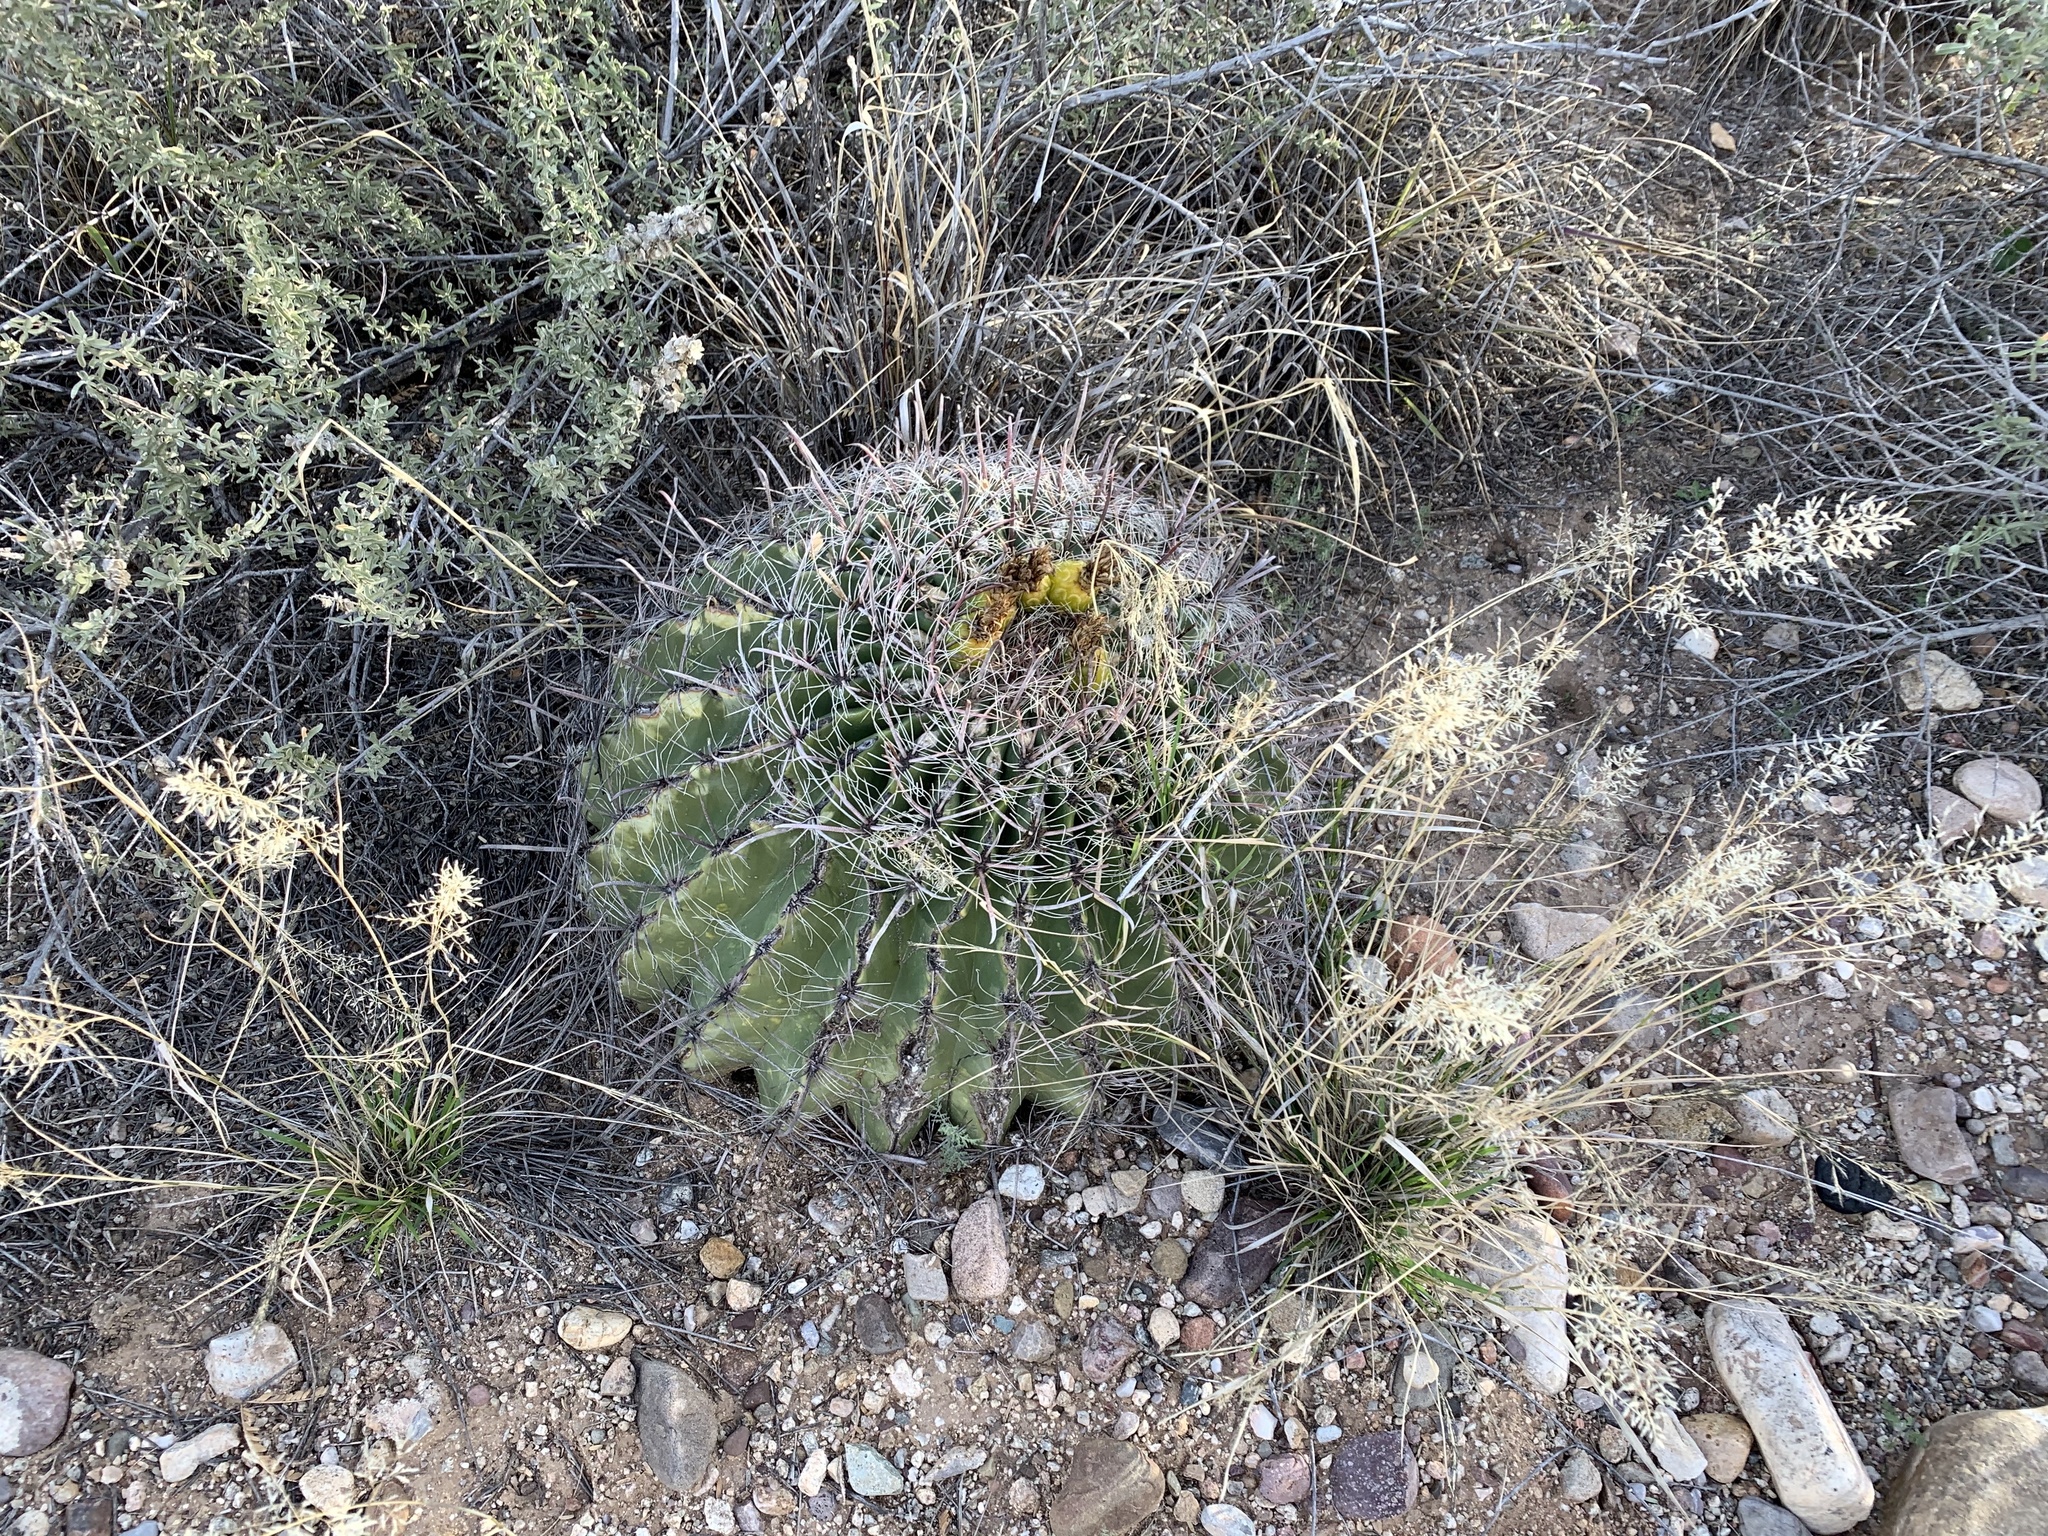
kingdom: Plantae
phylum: Tracheophyta
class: Magnoliopsida
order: Caryophyllales
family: Cactaceae
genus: Ferocactus
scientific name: Ferocactus wislizeni
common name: Candy barrel cactus
